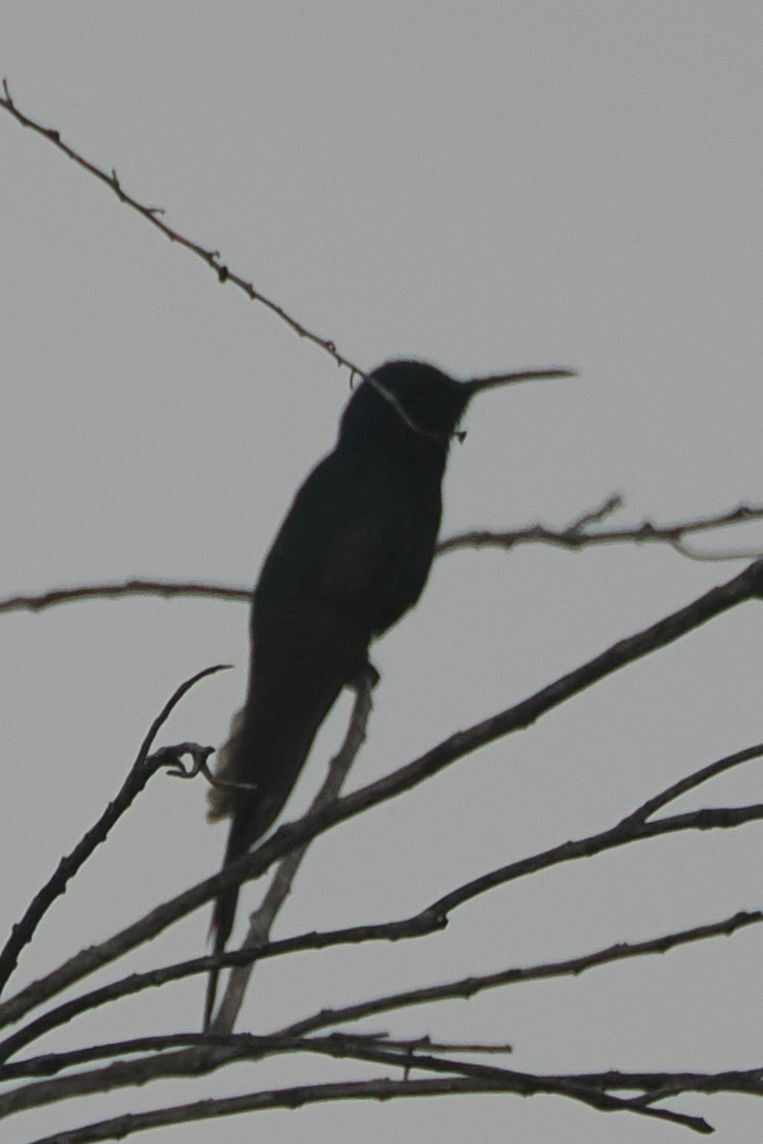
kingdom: Animalia
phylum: Chordata
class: Aves
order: Apodiformes
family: Trochilidae
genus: Eupetomena
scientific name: Eupetomena macroura
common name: Swallow-tailed hummingbird
